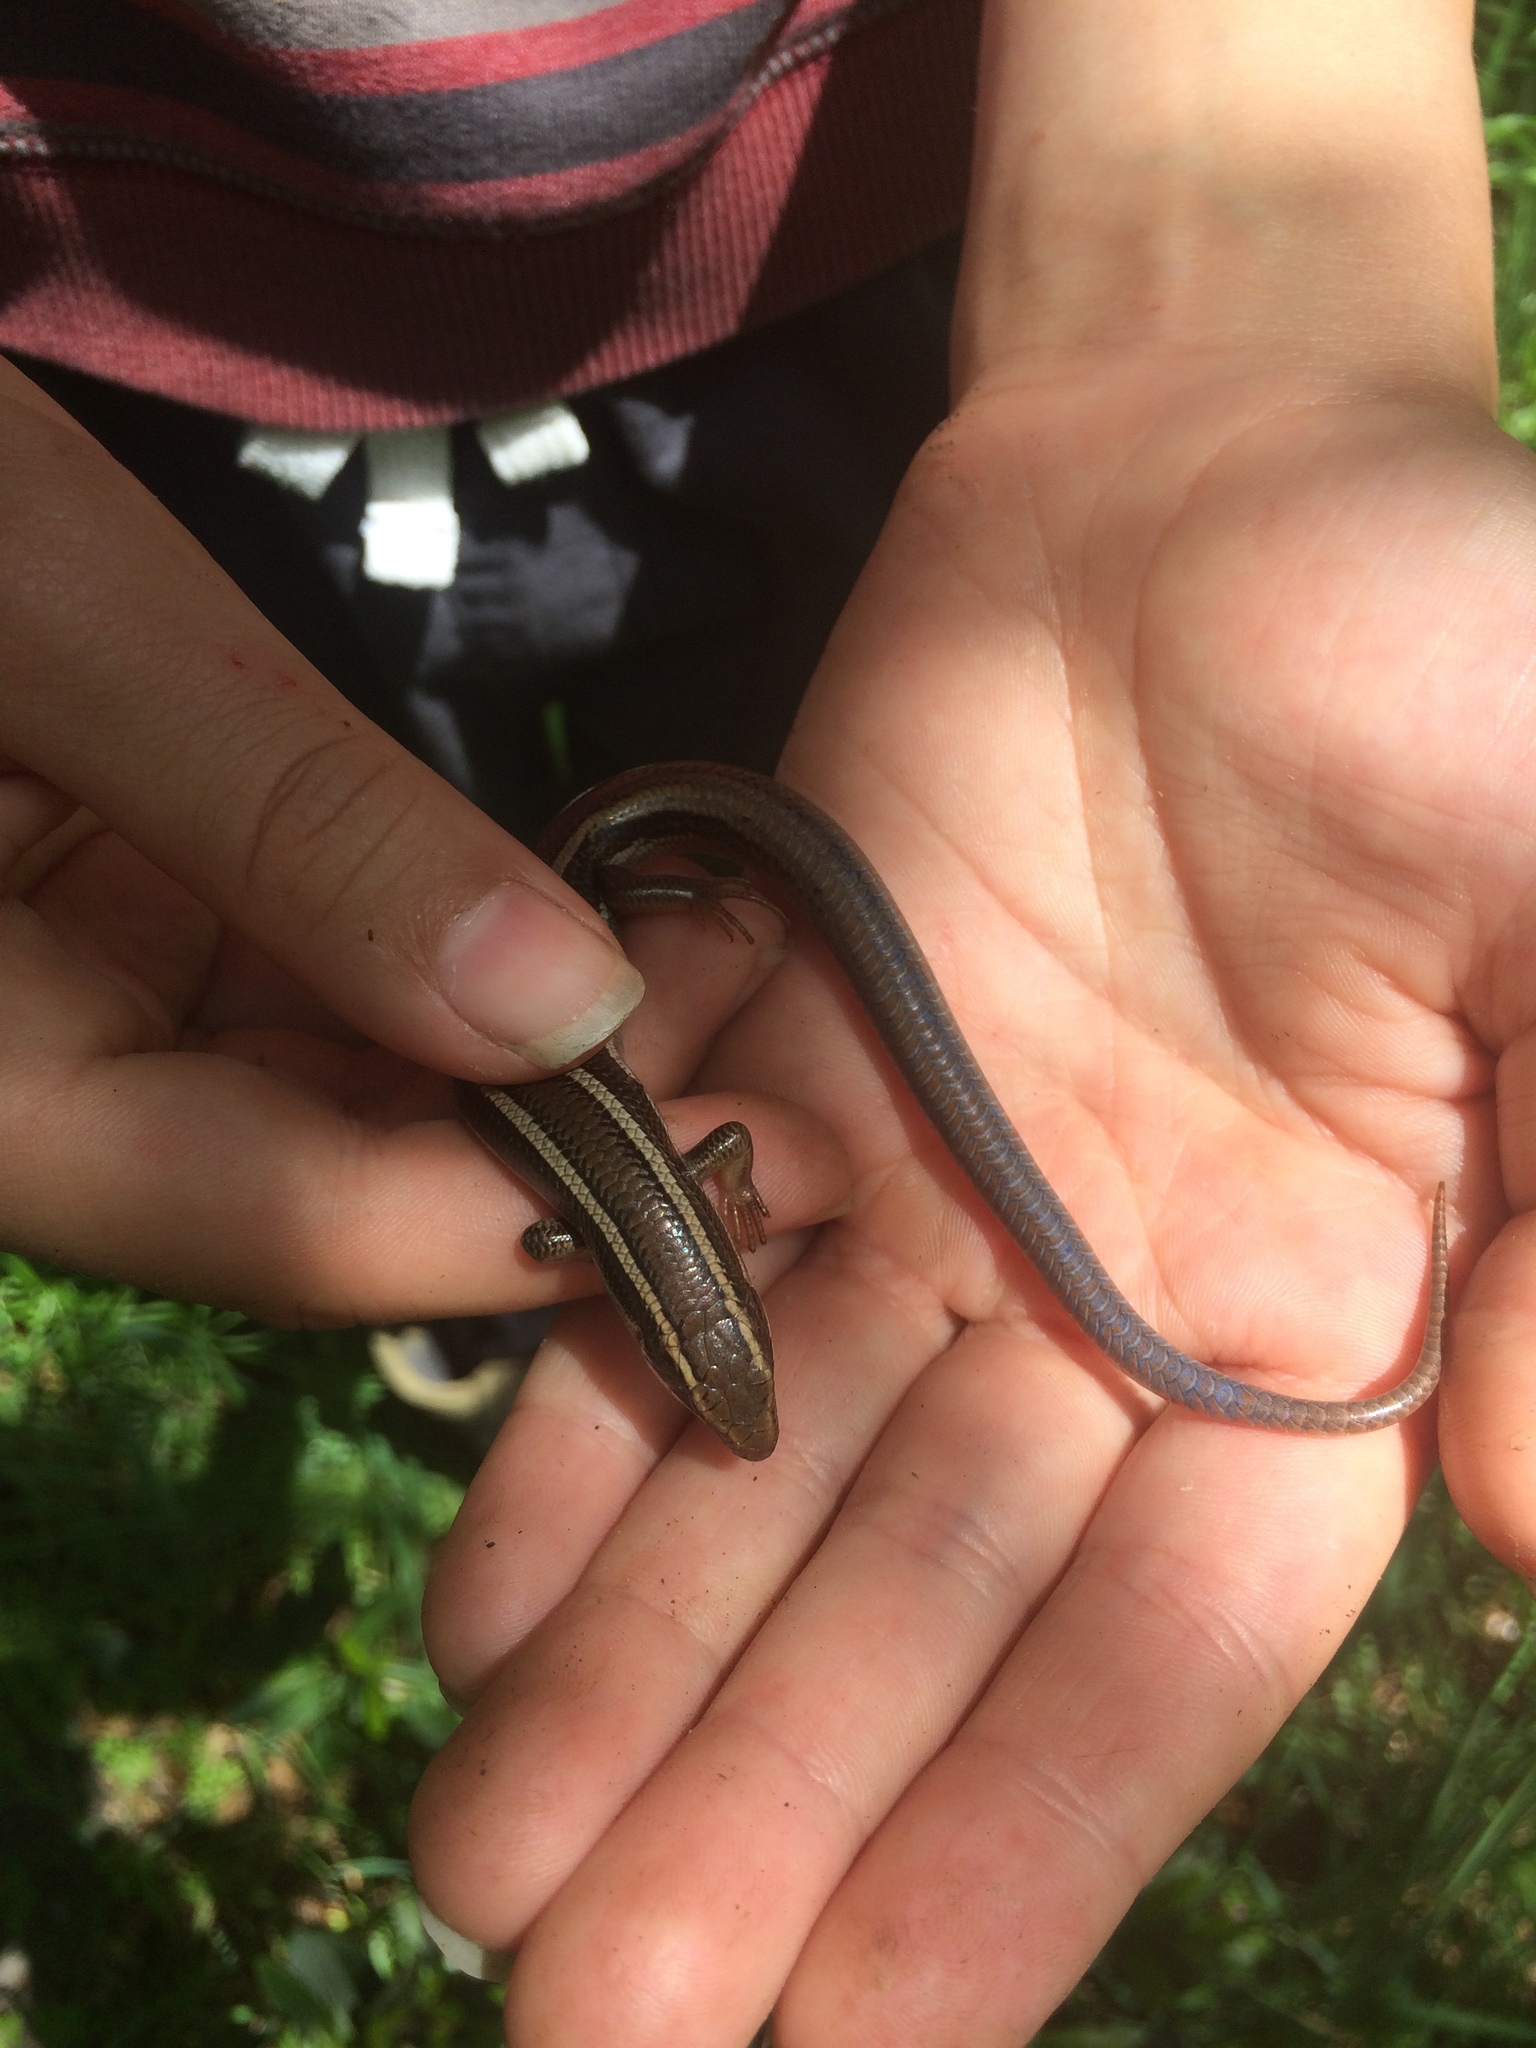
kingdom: Animalia
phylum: Chordata
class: Squamata
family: Scincidae
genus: Plestiodon
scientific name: Plestiodon skiltonianus
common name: Coronado island skink [interparietalis]
